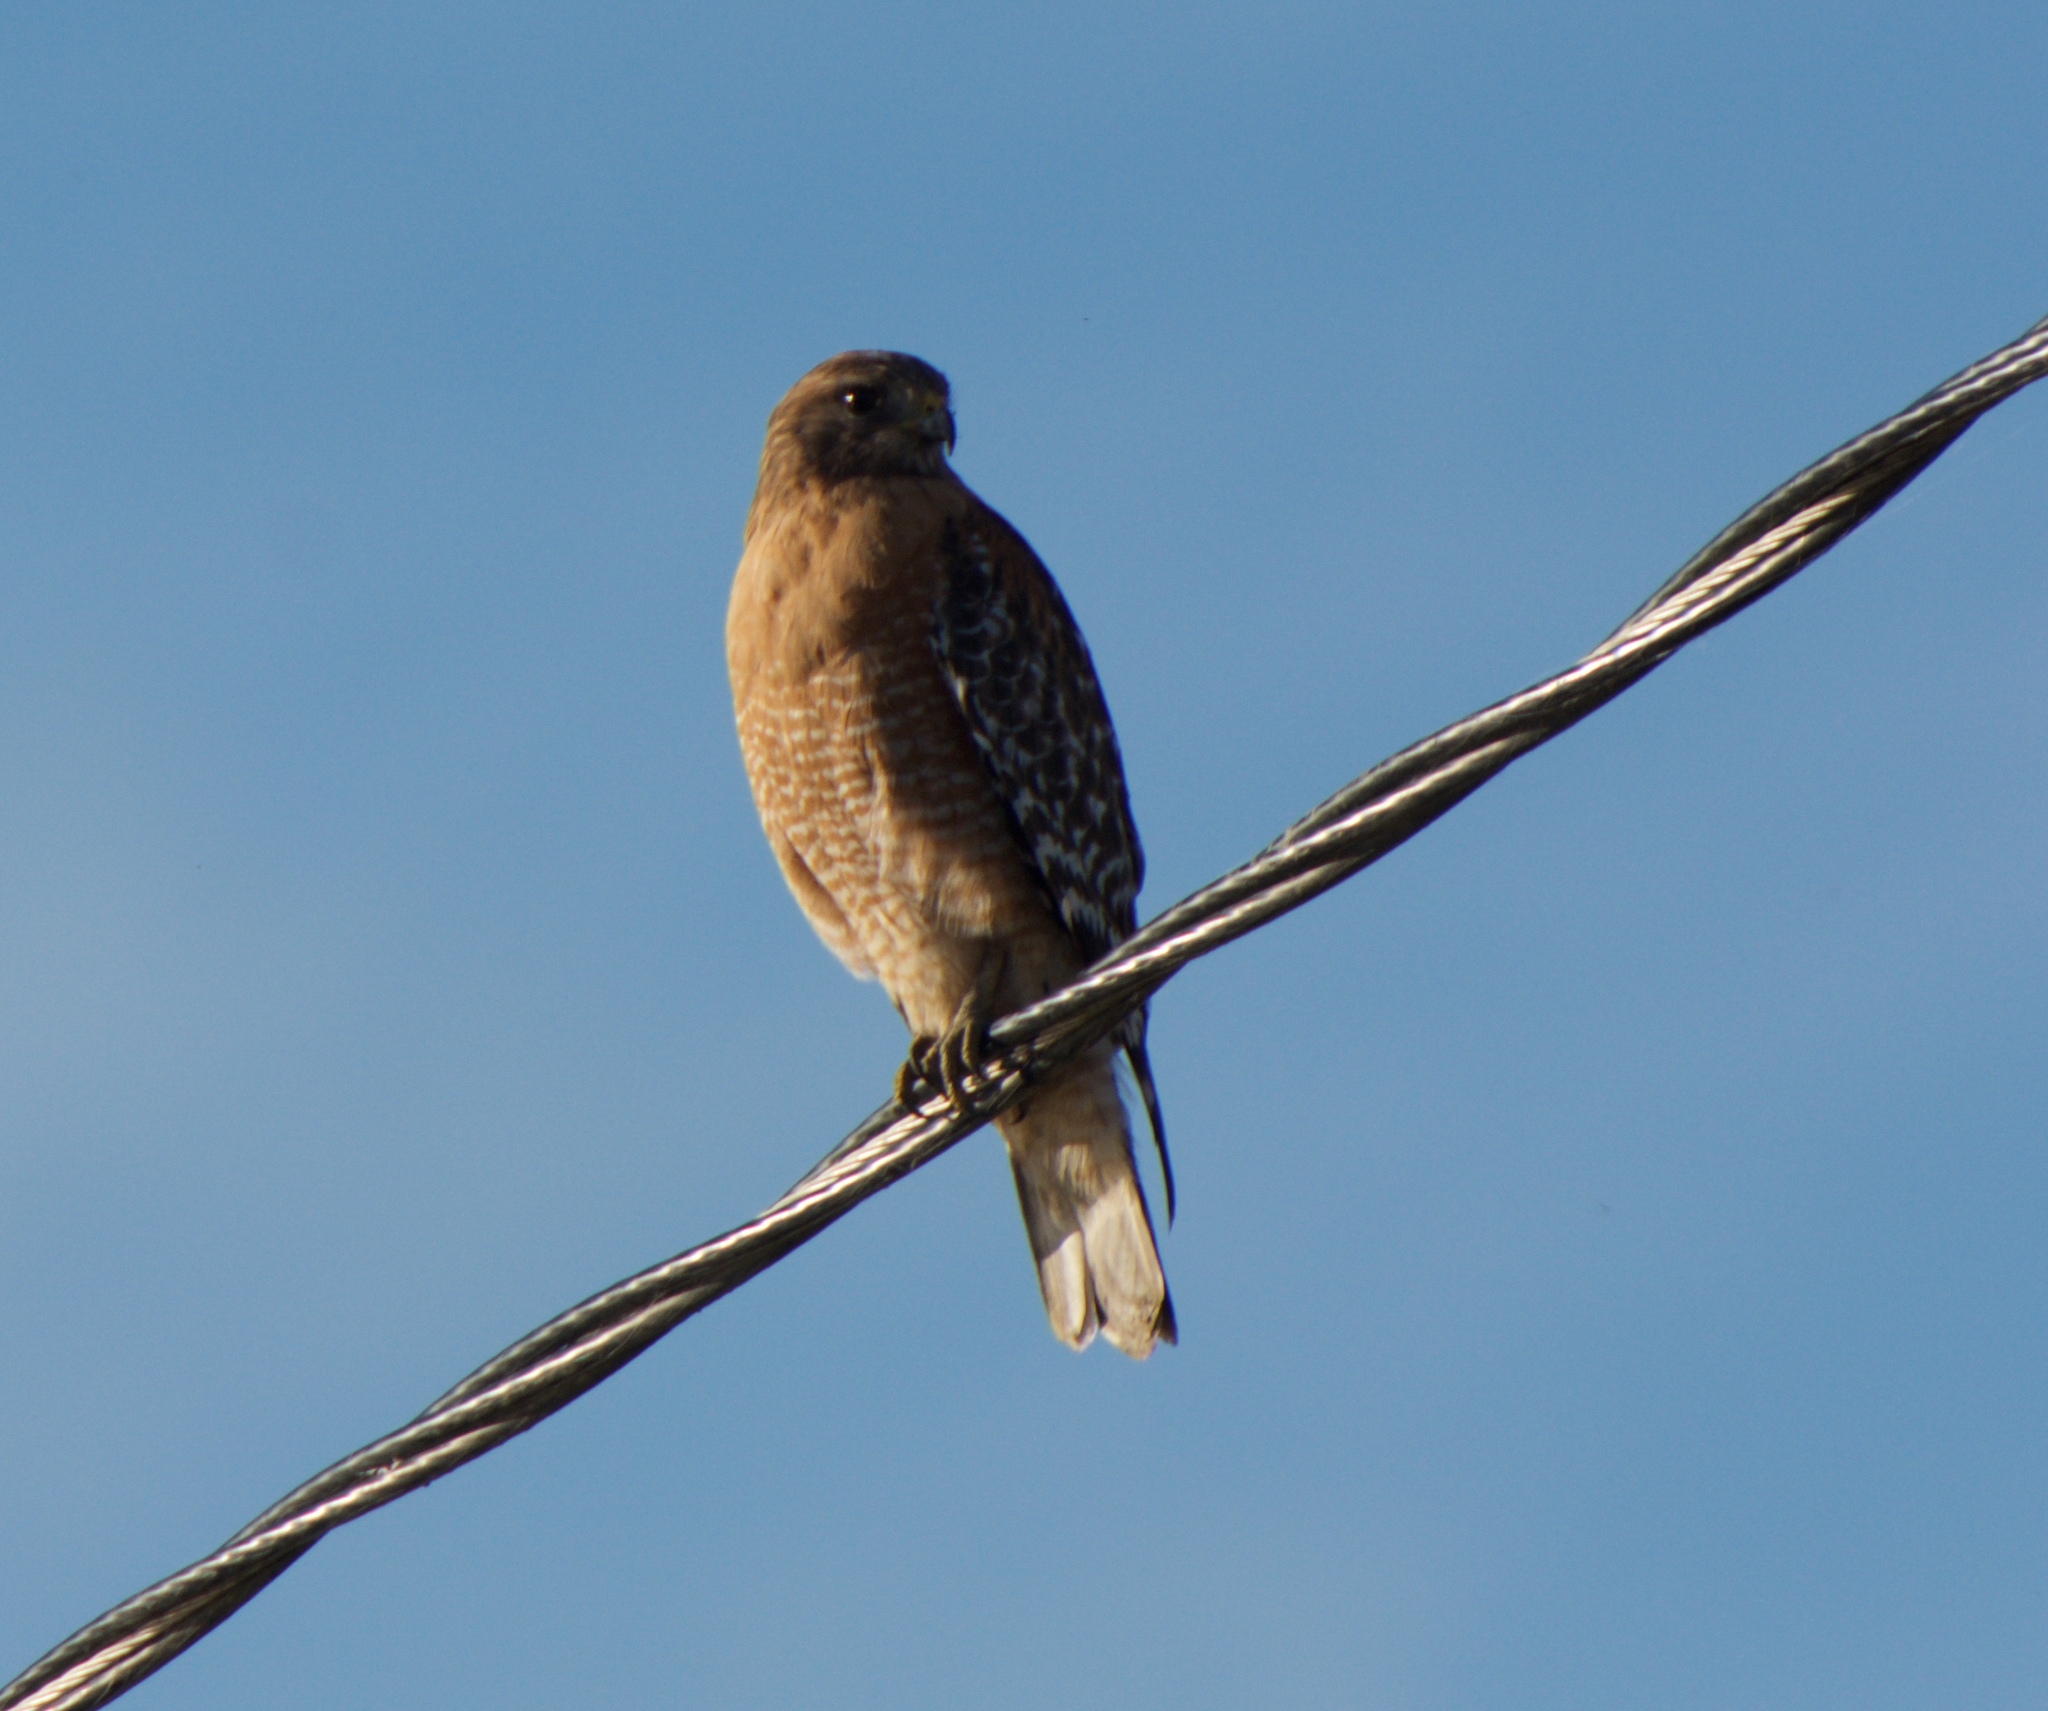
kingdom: Animalia
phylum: Chordata
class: Aves
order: Accipitriformes
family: Accipitridae
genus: Buteo
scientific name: Buteo lineatus
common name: Red-shouldered hawk
